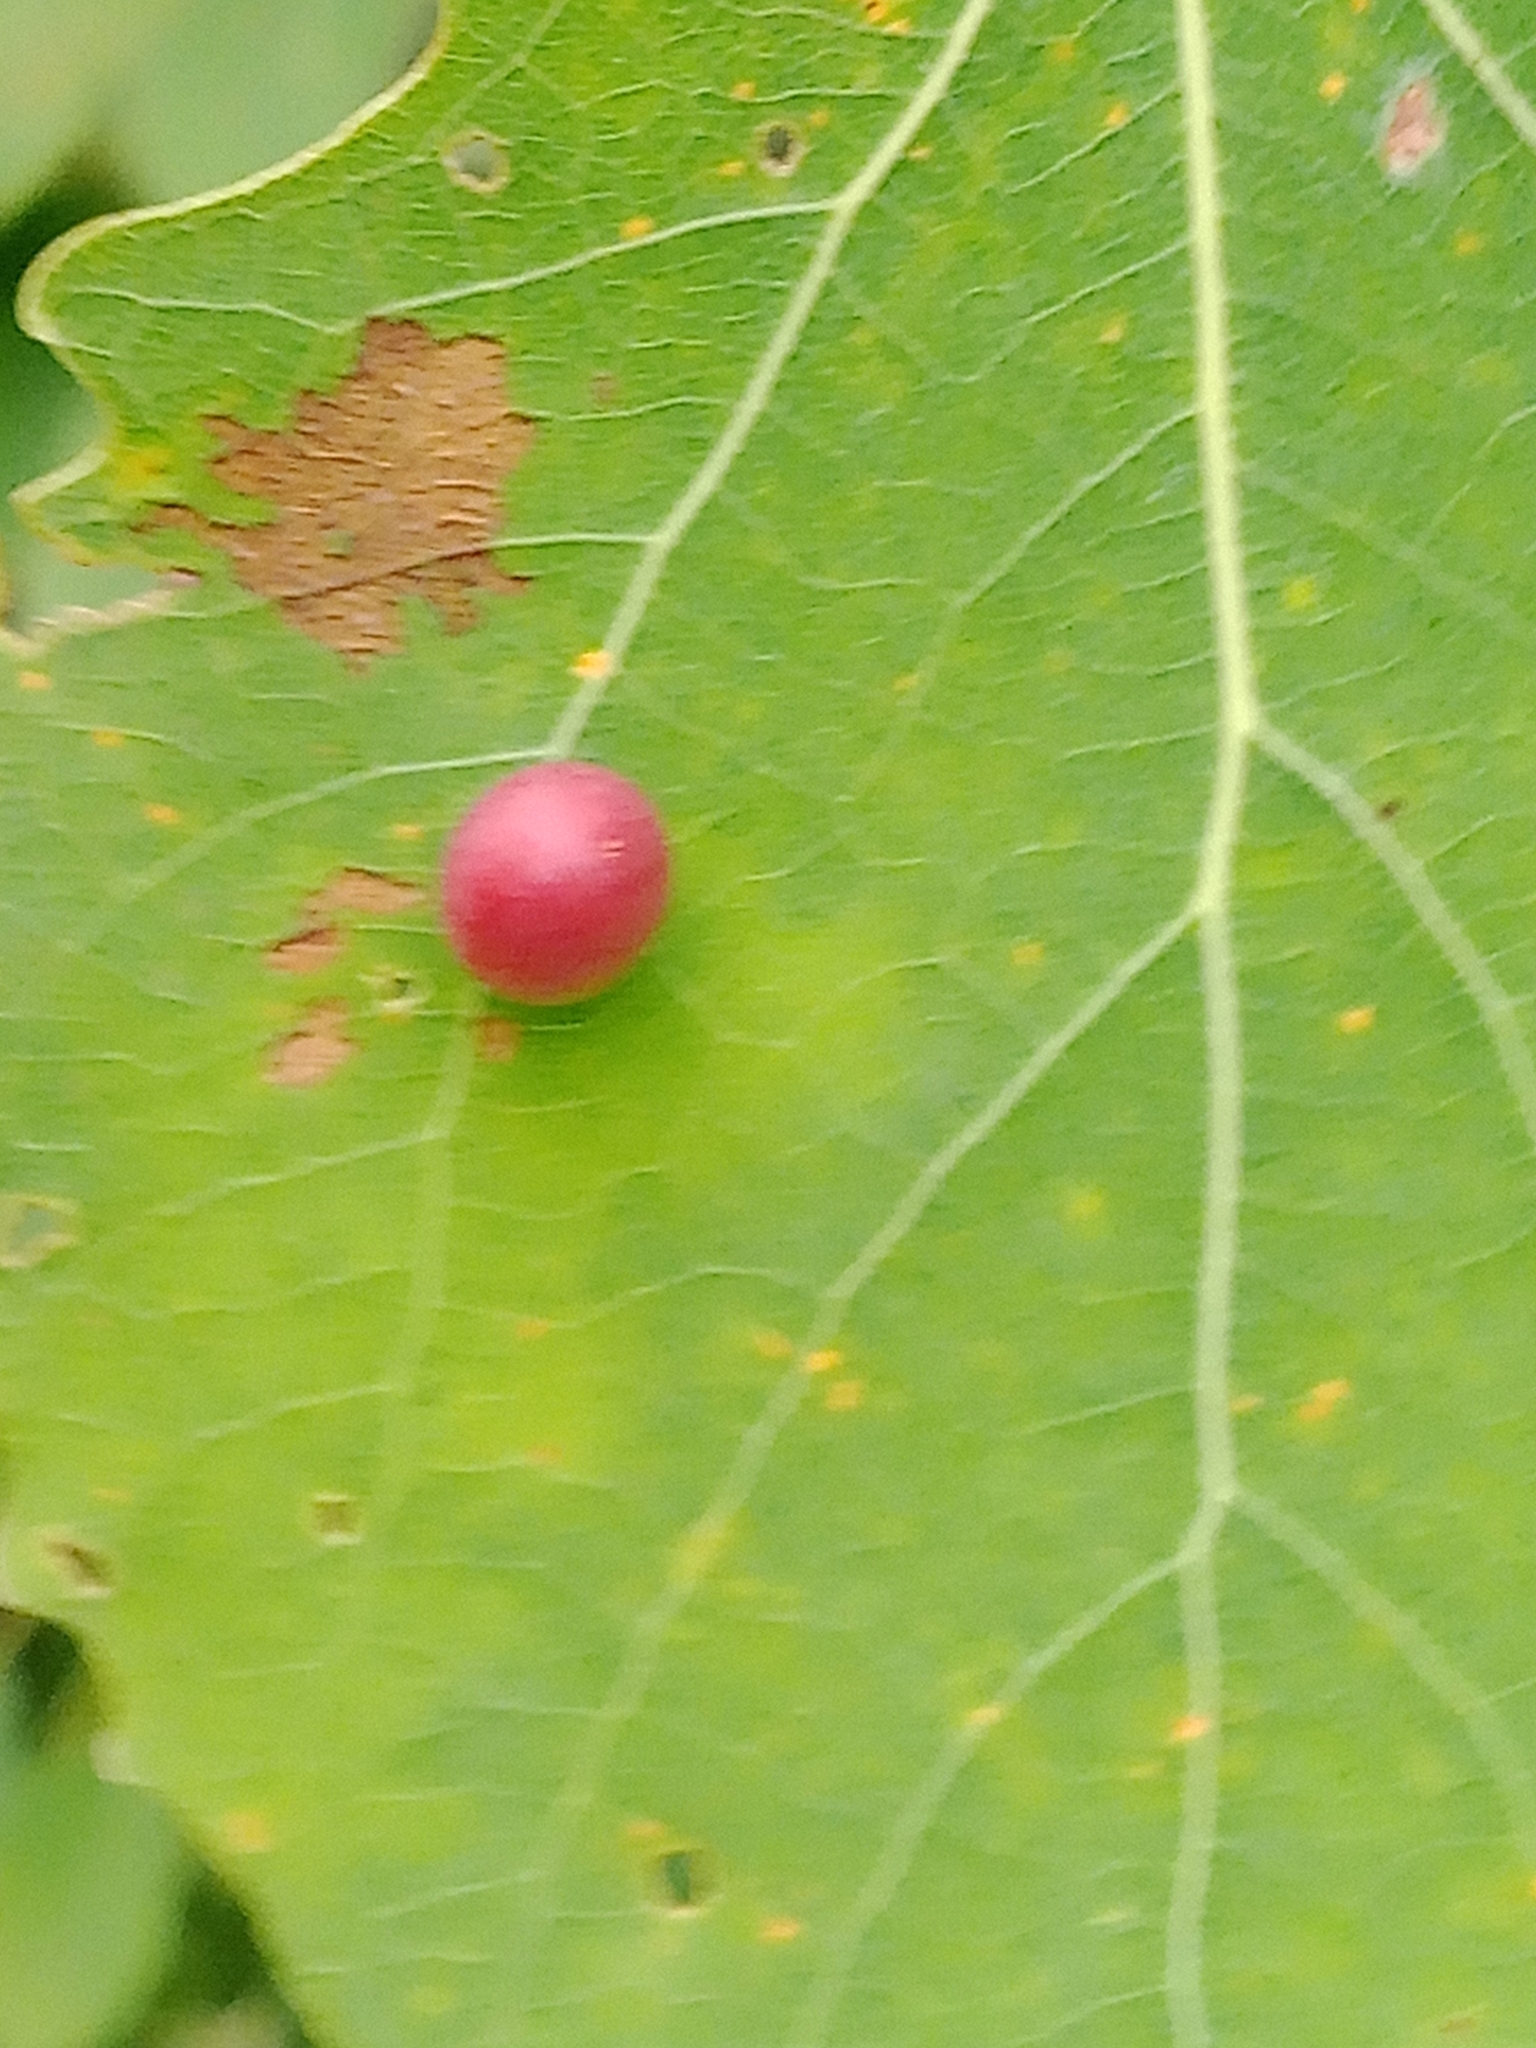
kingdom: Animalia
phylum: Arthropoda
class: Insecta
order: Diptera
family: Cecidomyiidae
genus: Harmandiola
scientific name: Harmandiola tremulae
